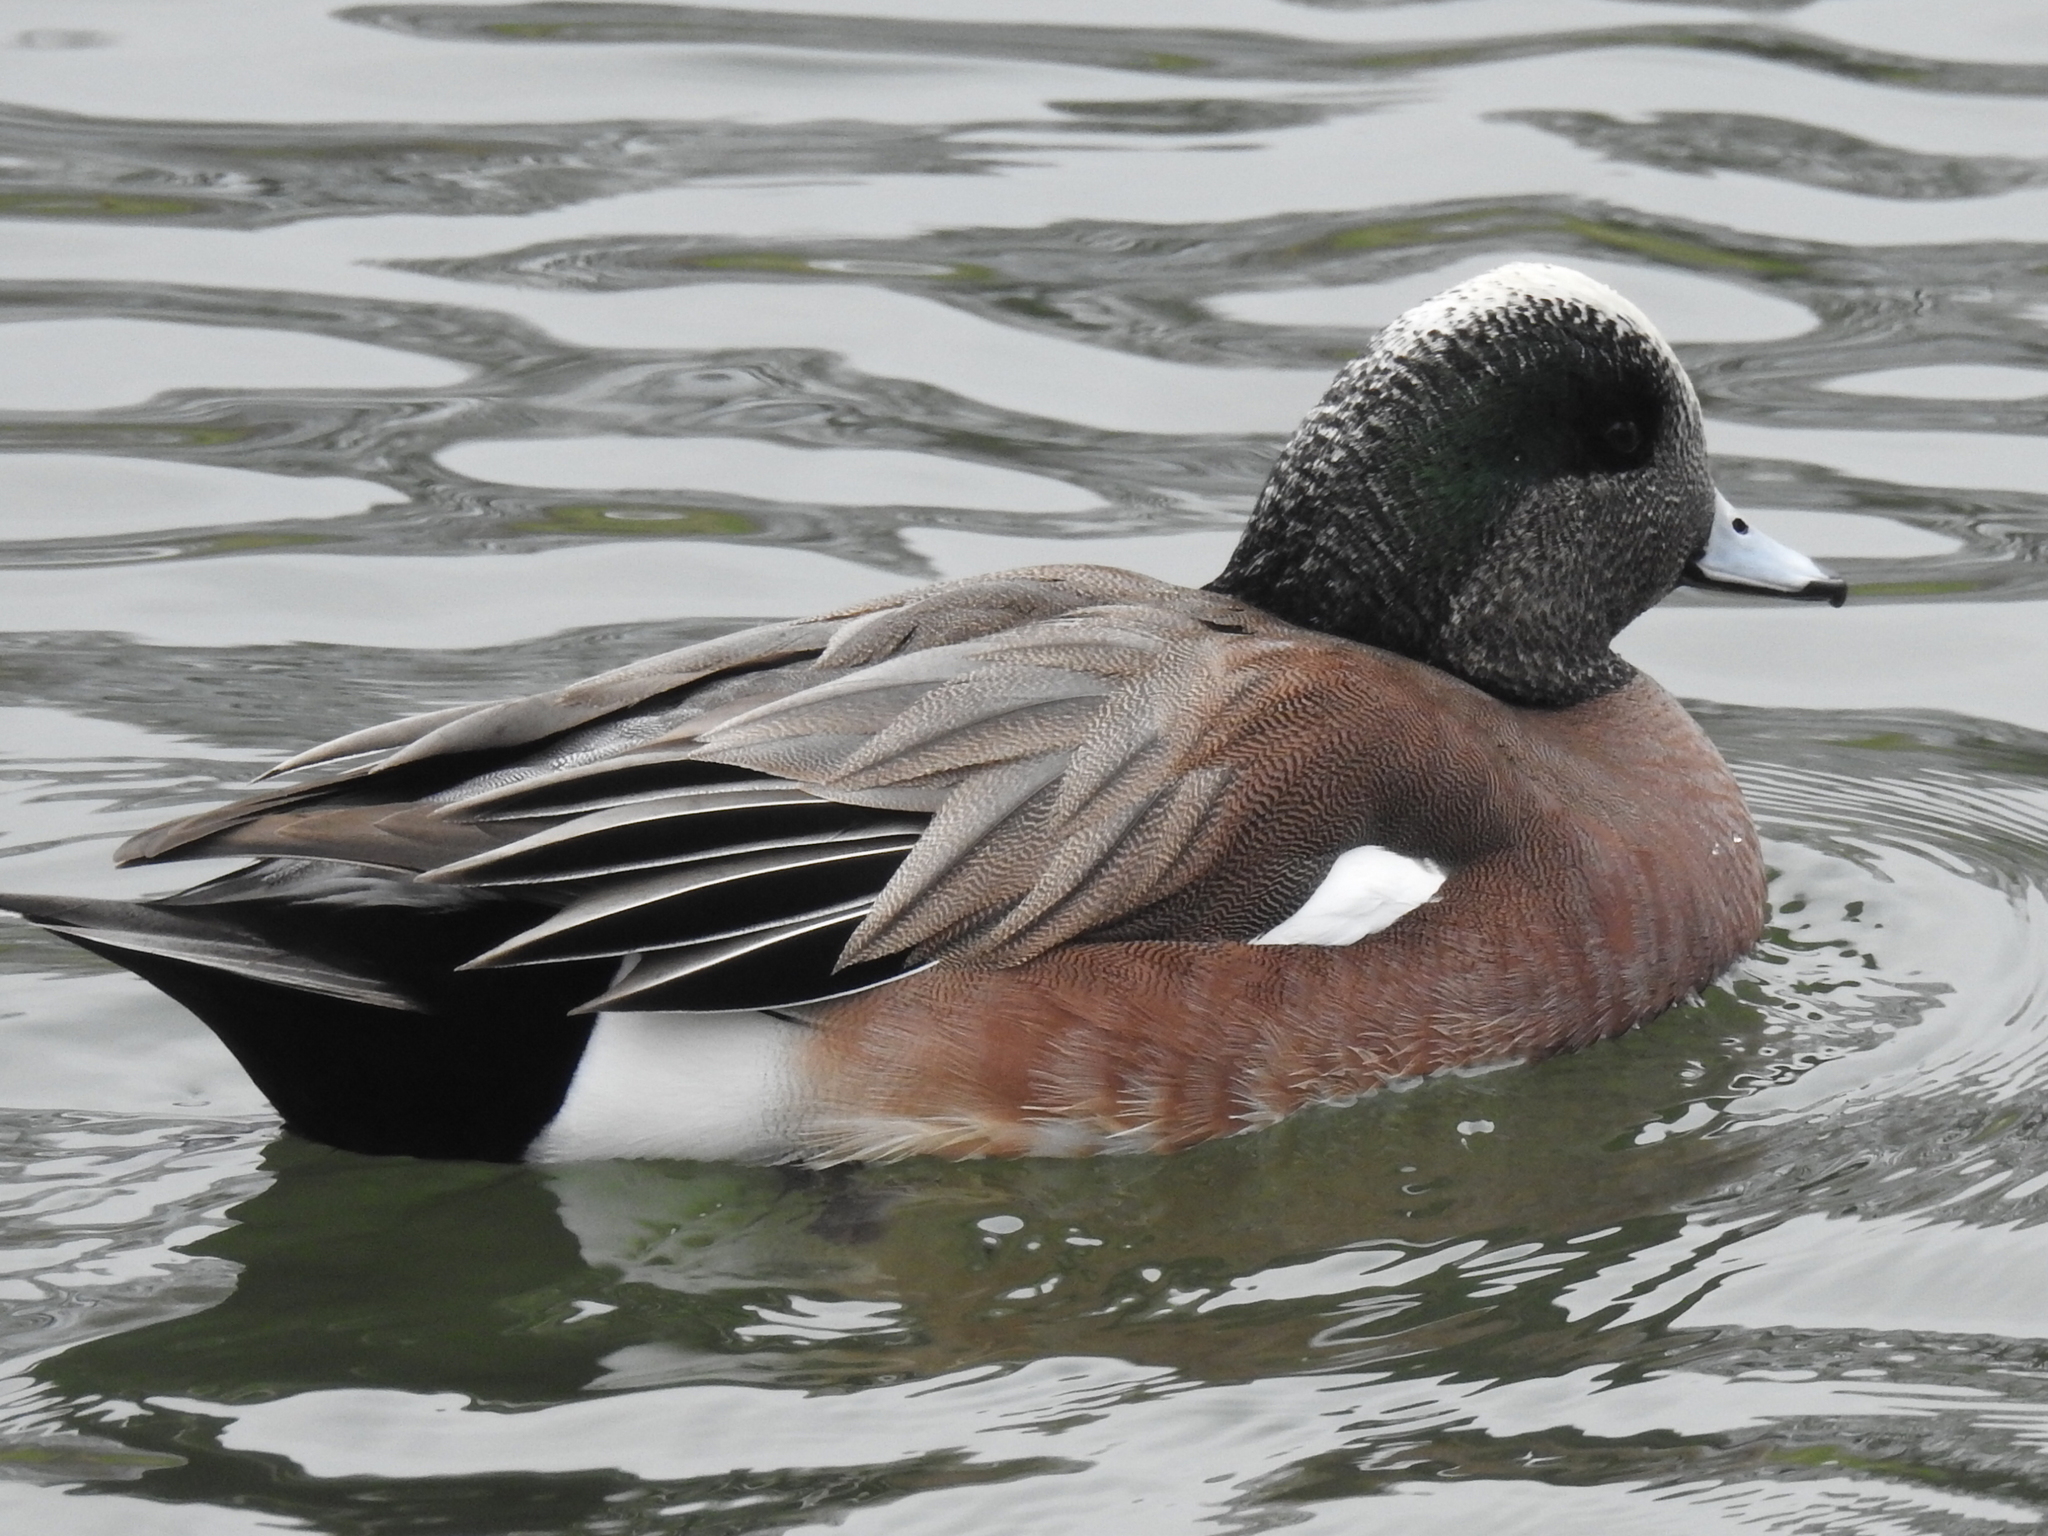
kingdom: Animalia
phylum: Chordata
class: Aves
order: Anseriformes
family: Anatidae
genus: Mareca
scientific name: Mareca americana
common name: American wigeon
